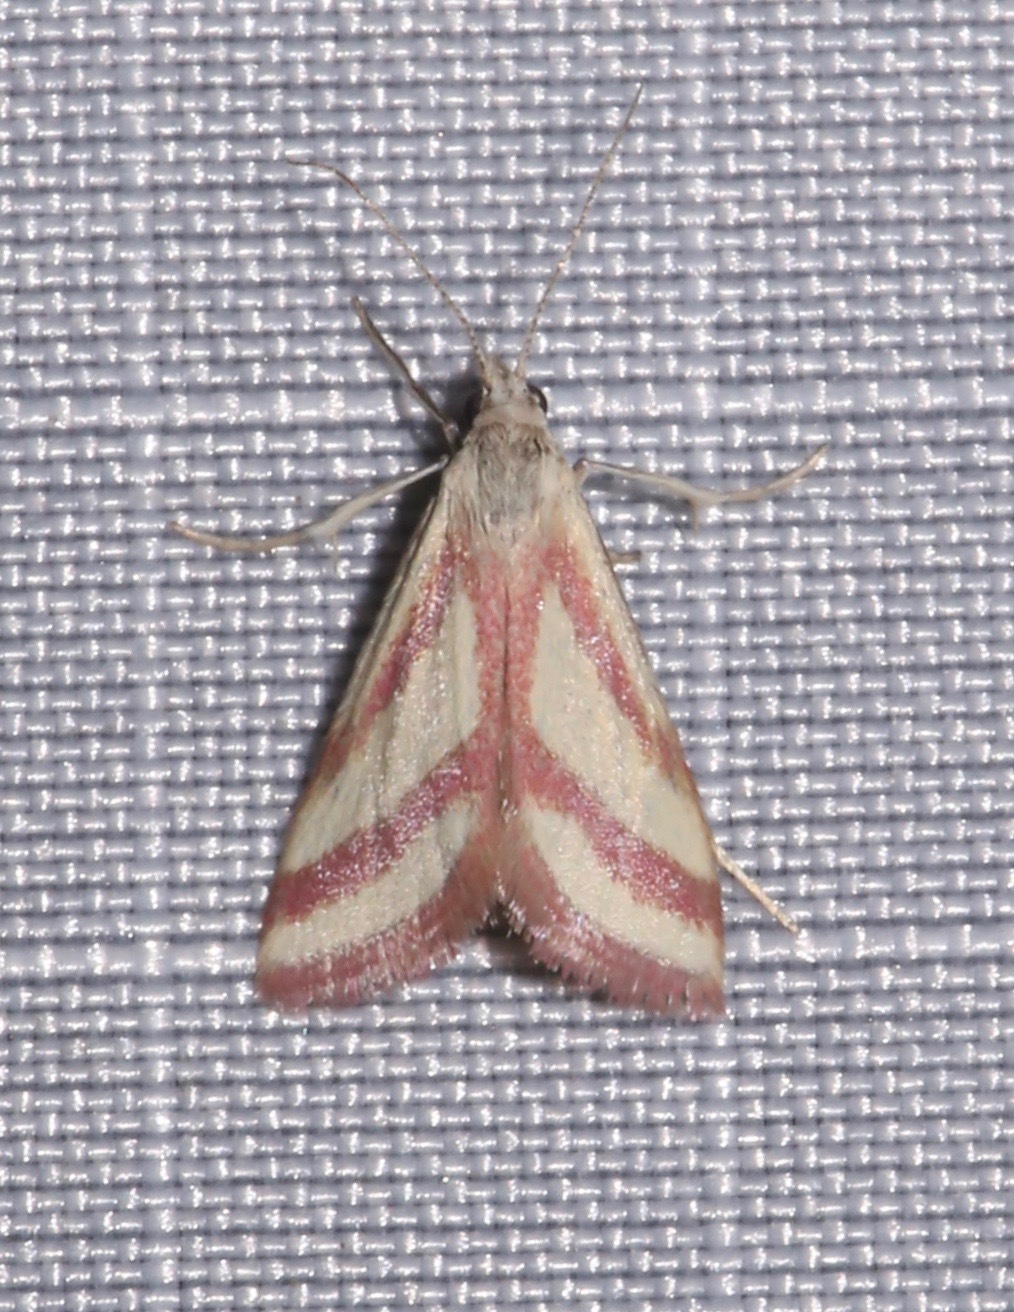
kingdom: Animalia
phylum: Arthropoda
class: Insecta
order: Lepidoptera
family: Crambidae
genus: Microtheoris
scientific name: Microtheoris vibicalis
